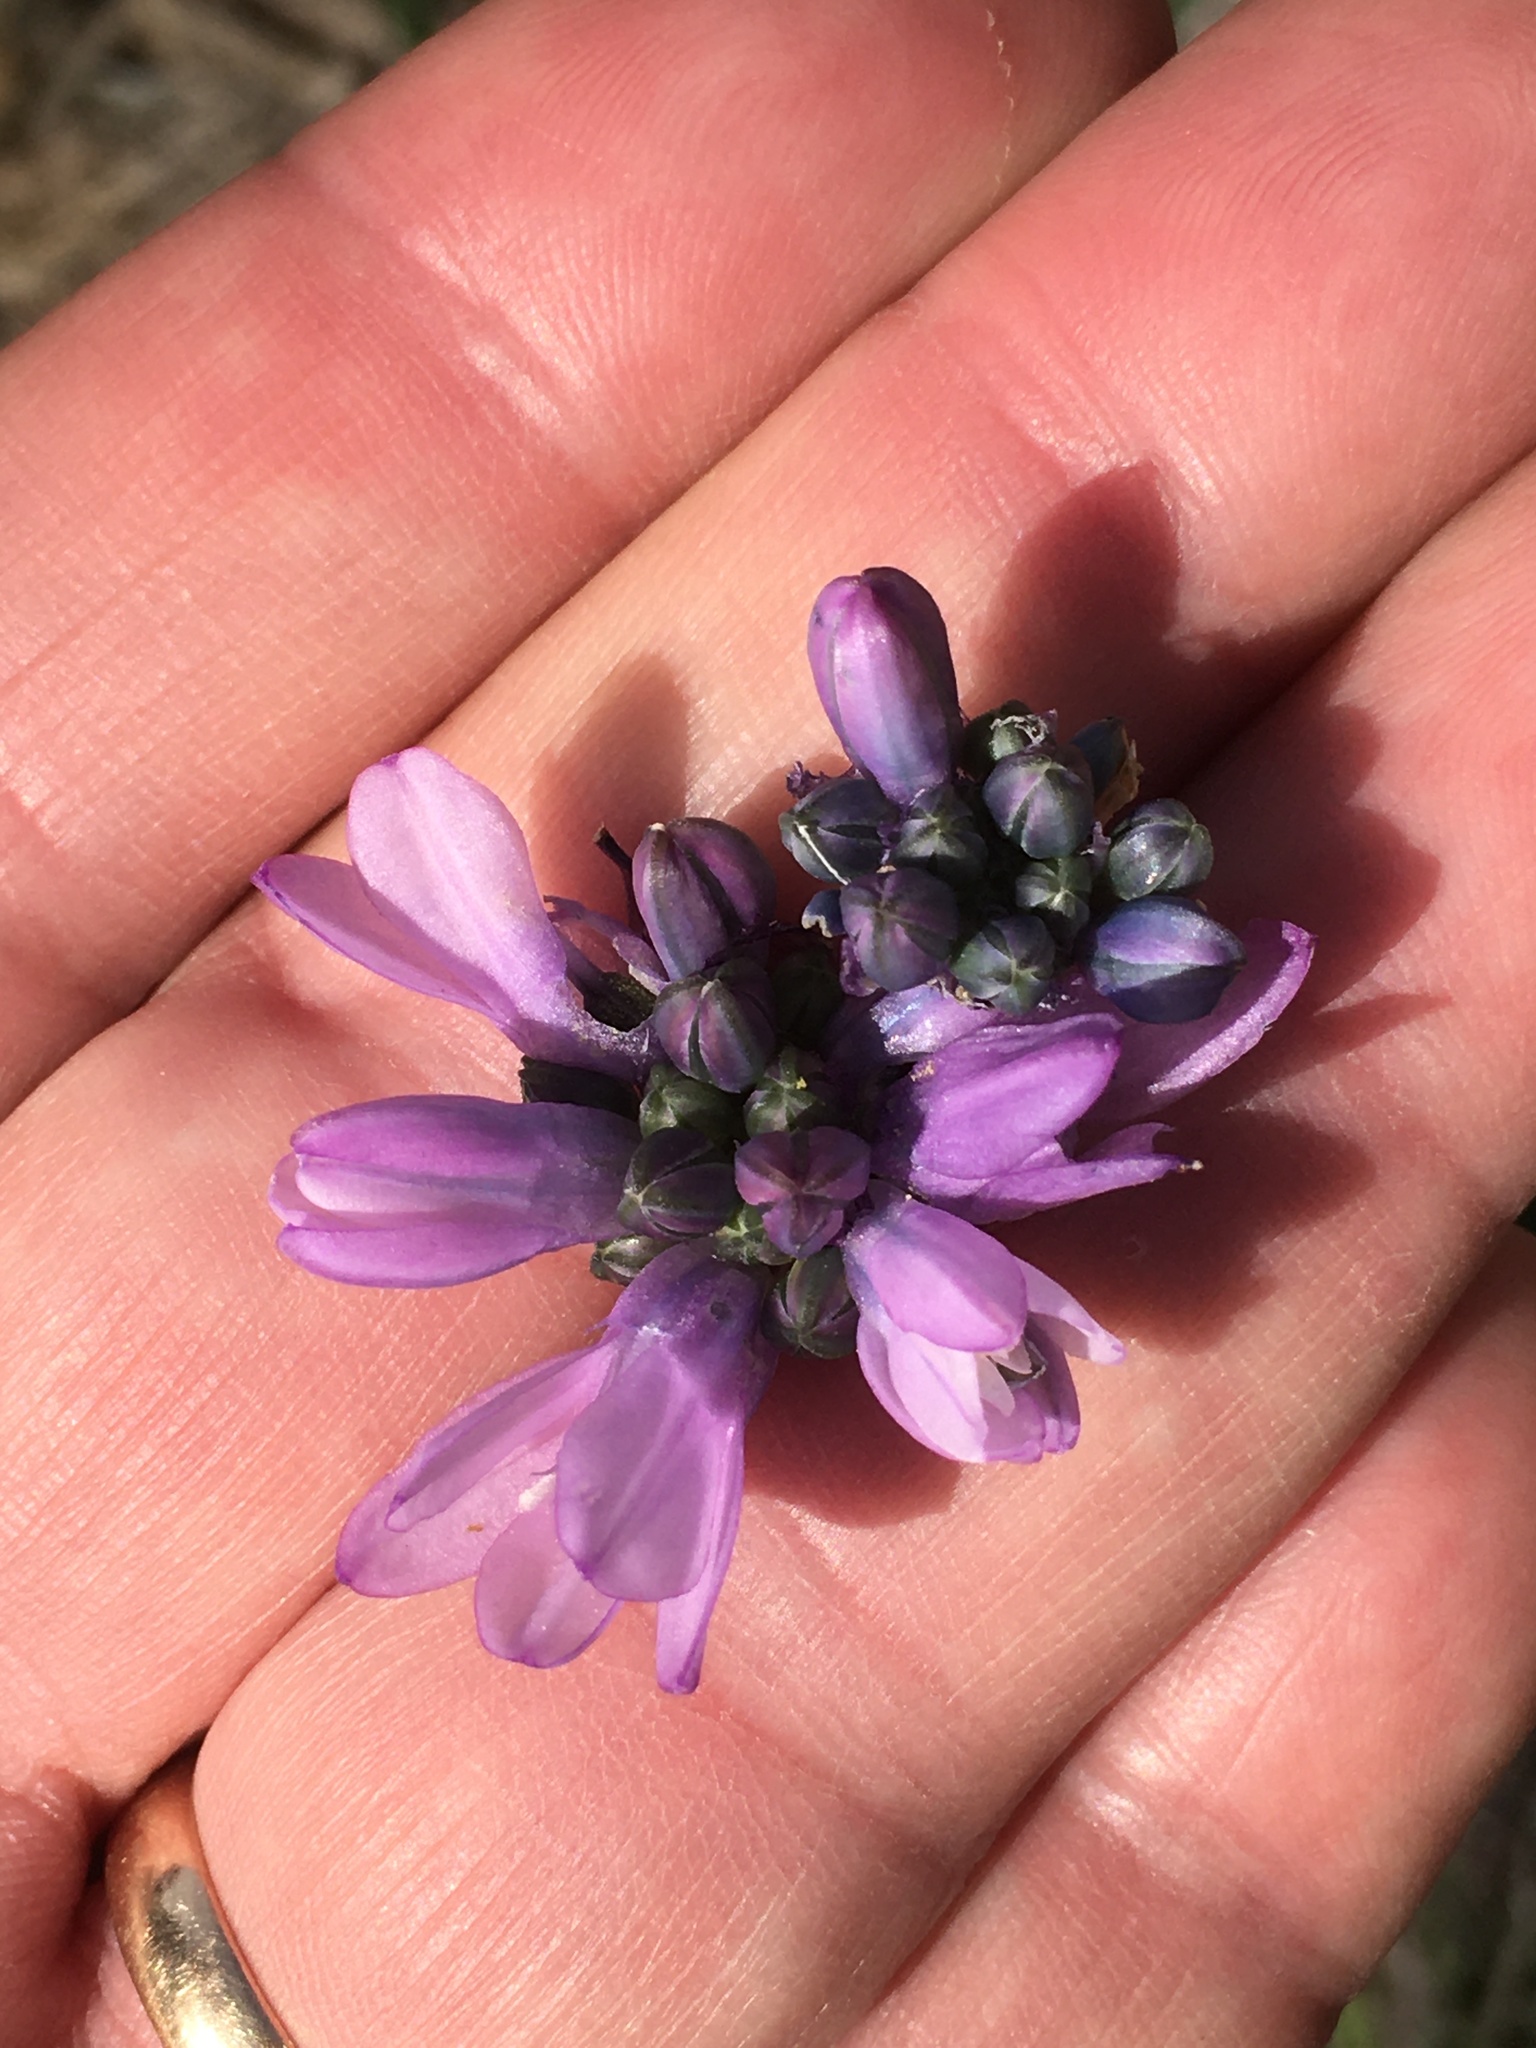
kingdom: Plantae
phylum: Tracheophyta
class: Liliopsida
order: Asparagales
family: Asparagaceae
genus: Dipterostemon
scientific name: Dipterostemon capitatus
